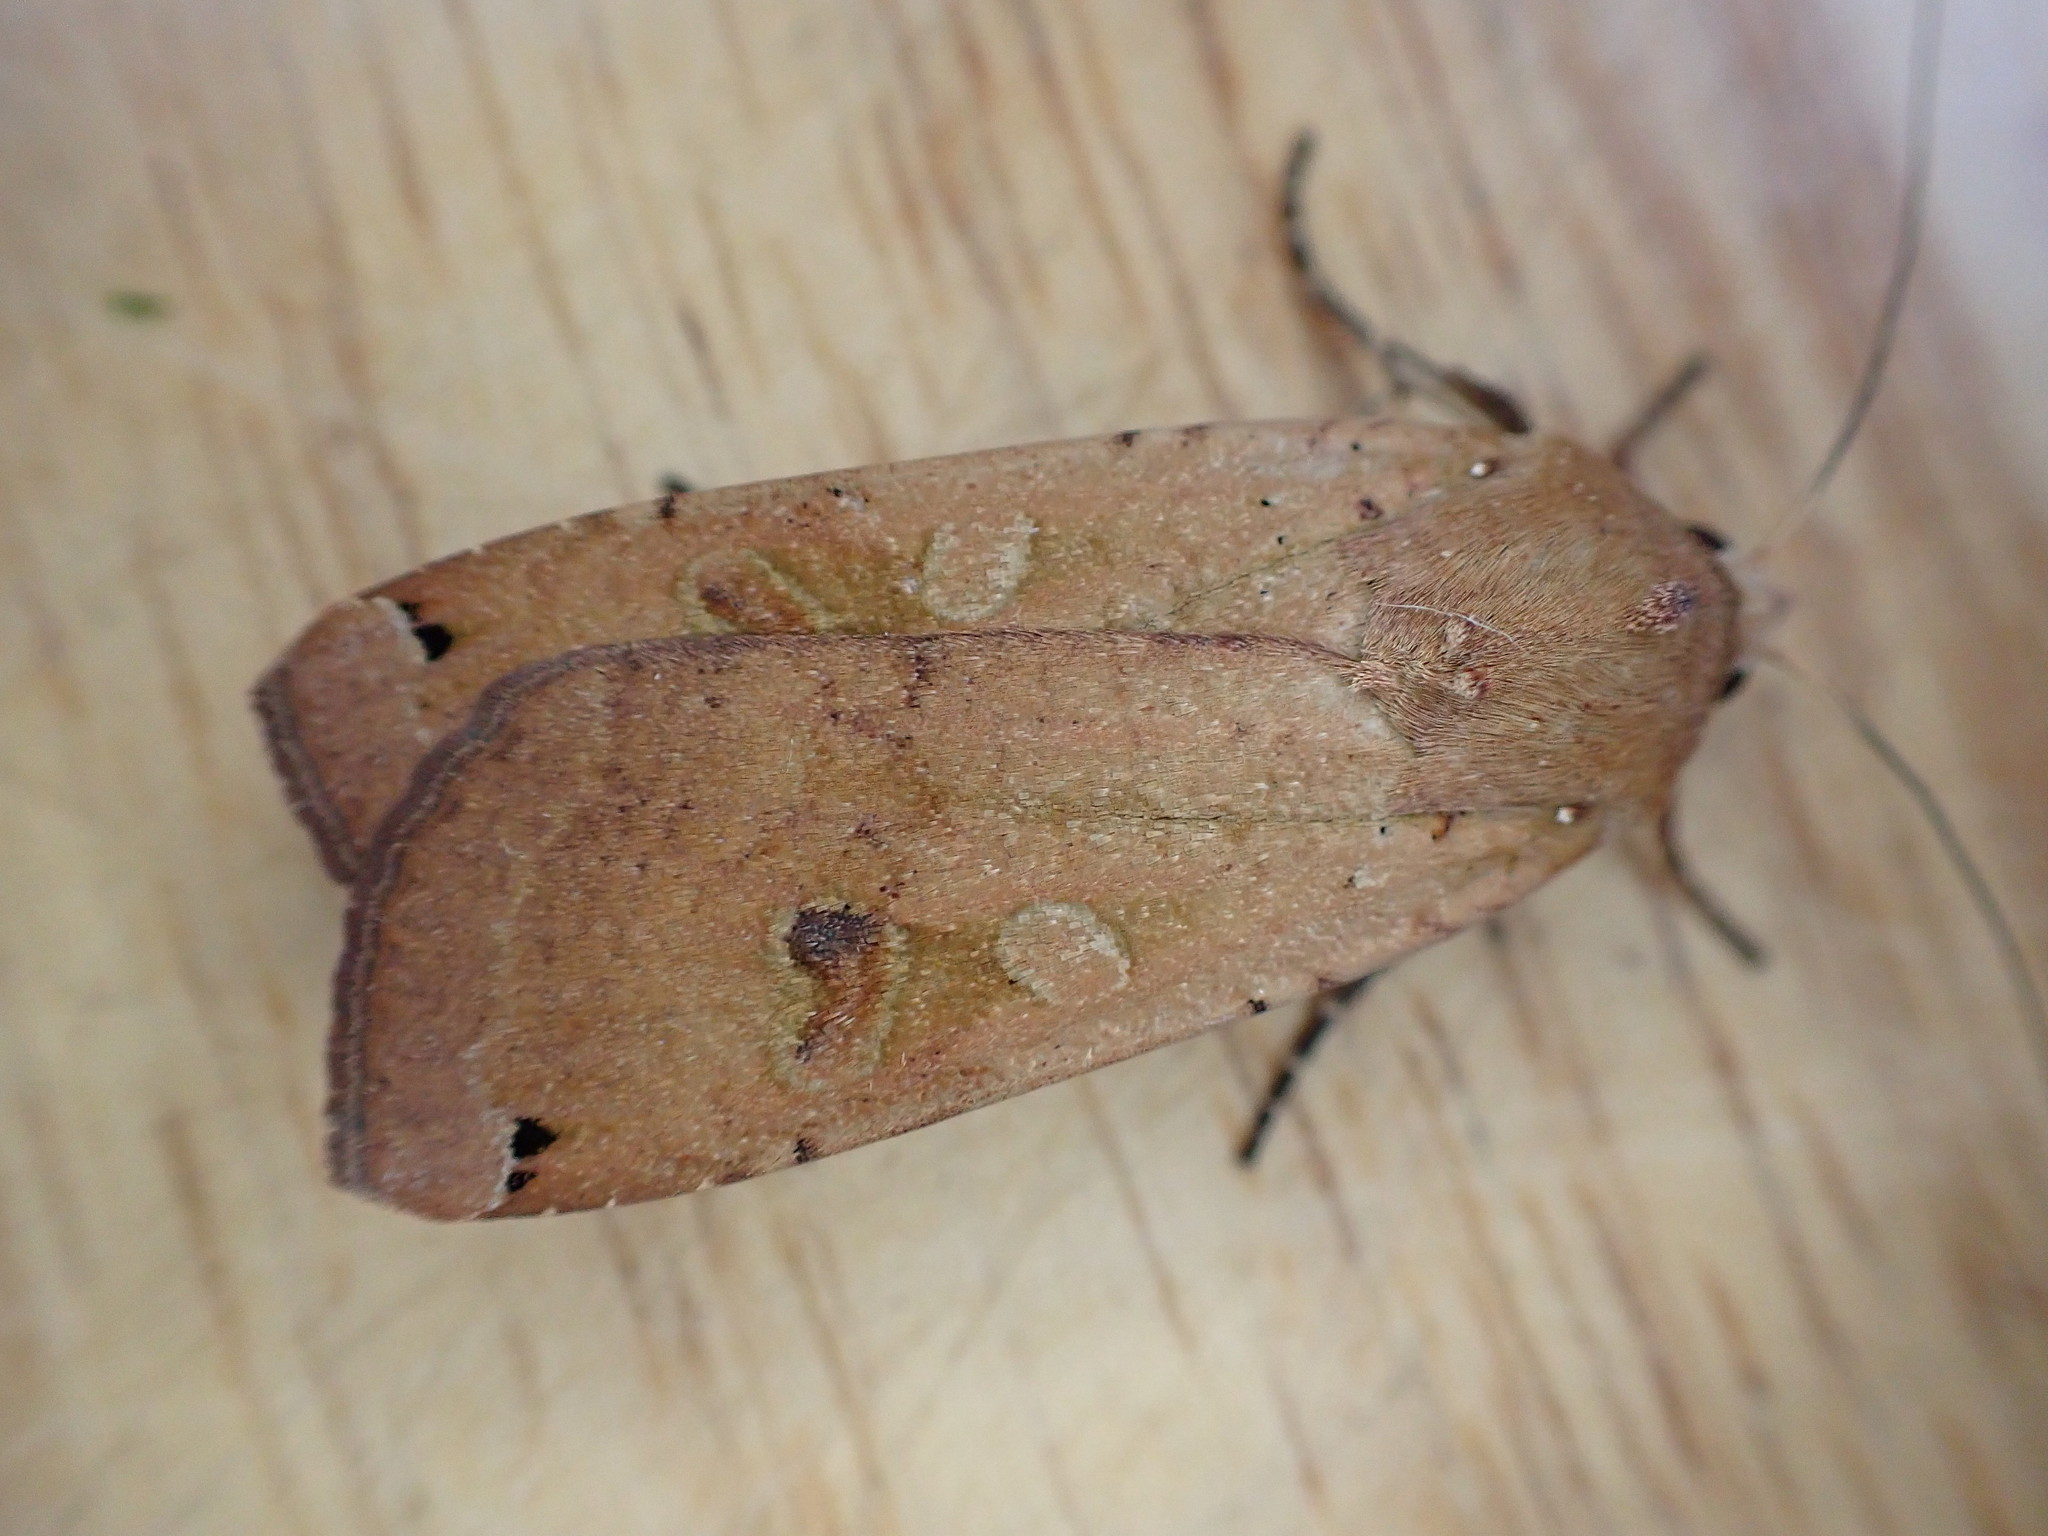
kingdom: Animalia
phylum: Arthropoda
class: Insecta
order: Lepidoptera
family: Noctuidae
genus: Noctua
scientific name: Noctua pronuba
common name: Large yellow underwing
